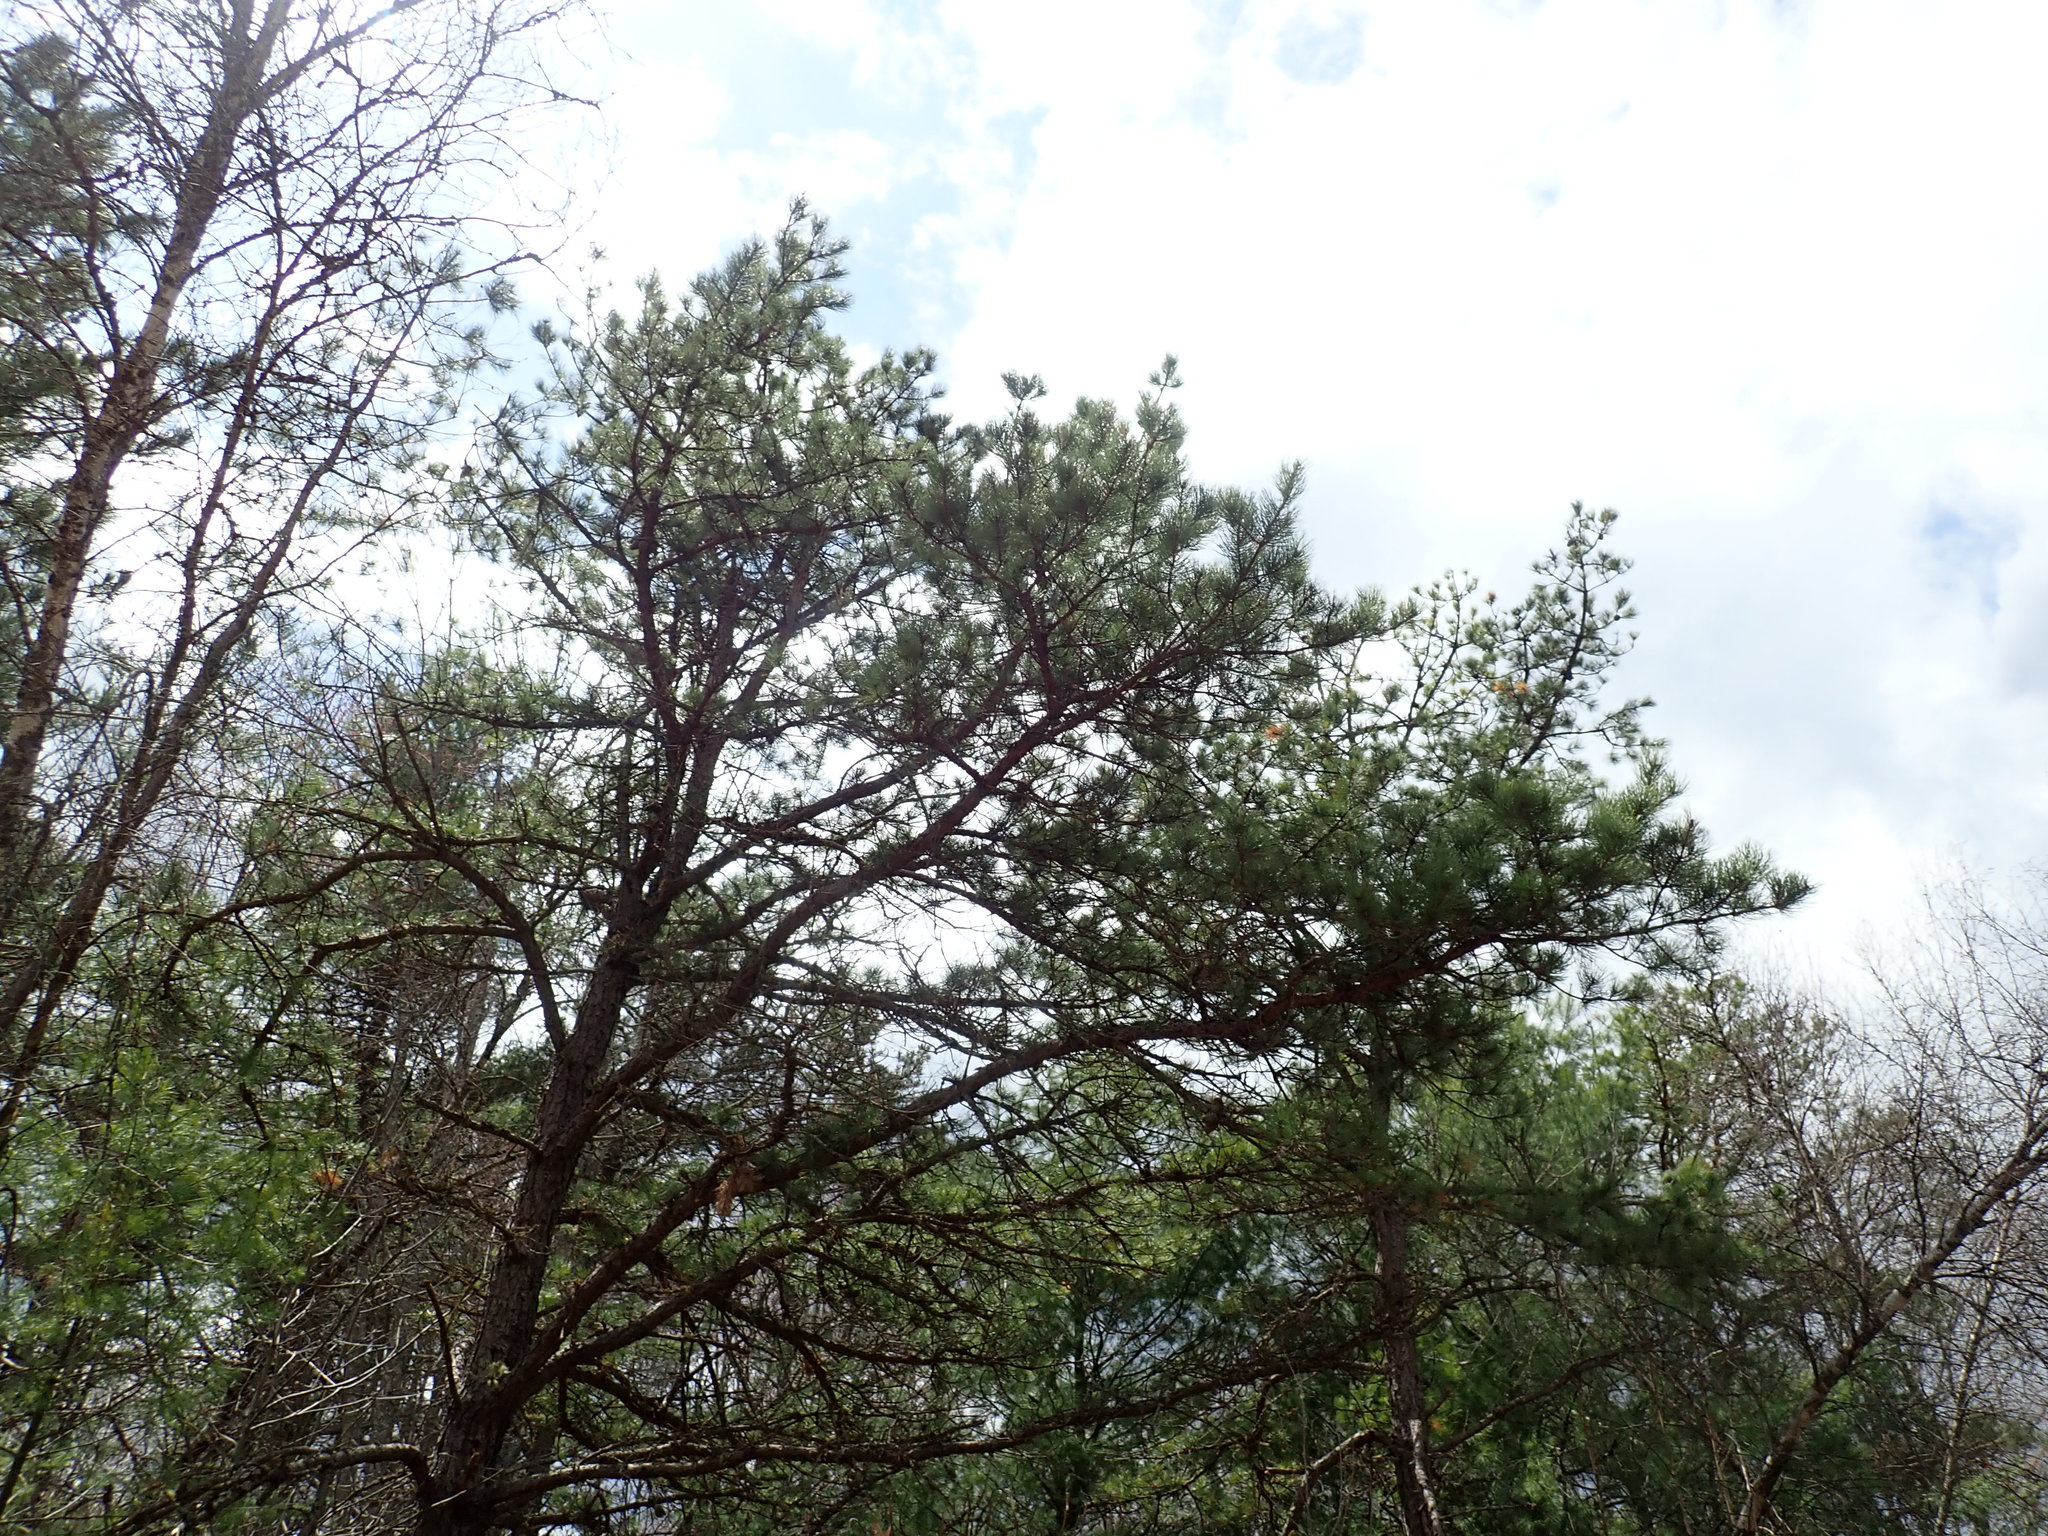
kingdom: Plantae
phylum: Tracheophyta
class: Pinopsida
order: Pinales
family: Pinaceae
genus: Pinus
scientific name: Pinus rigida
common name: Pitch pine
